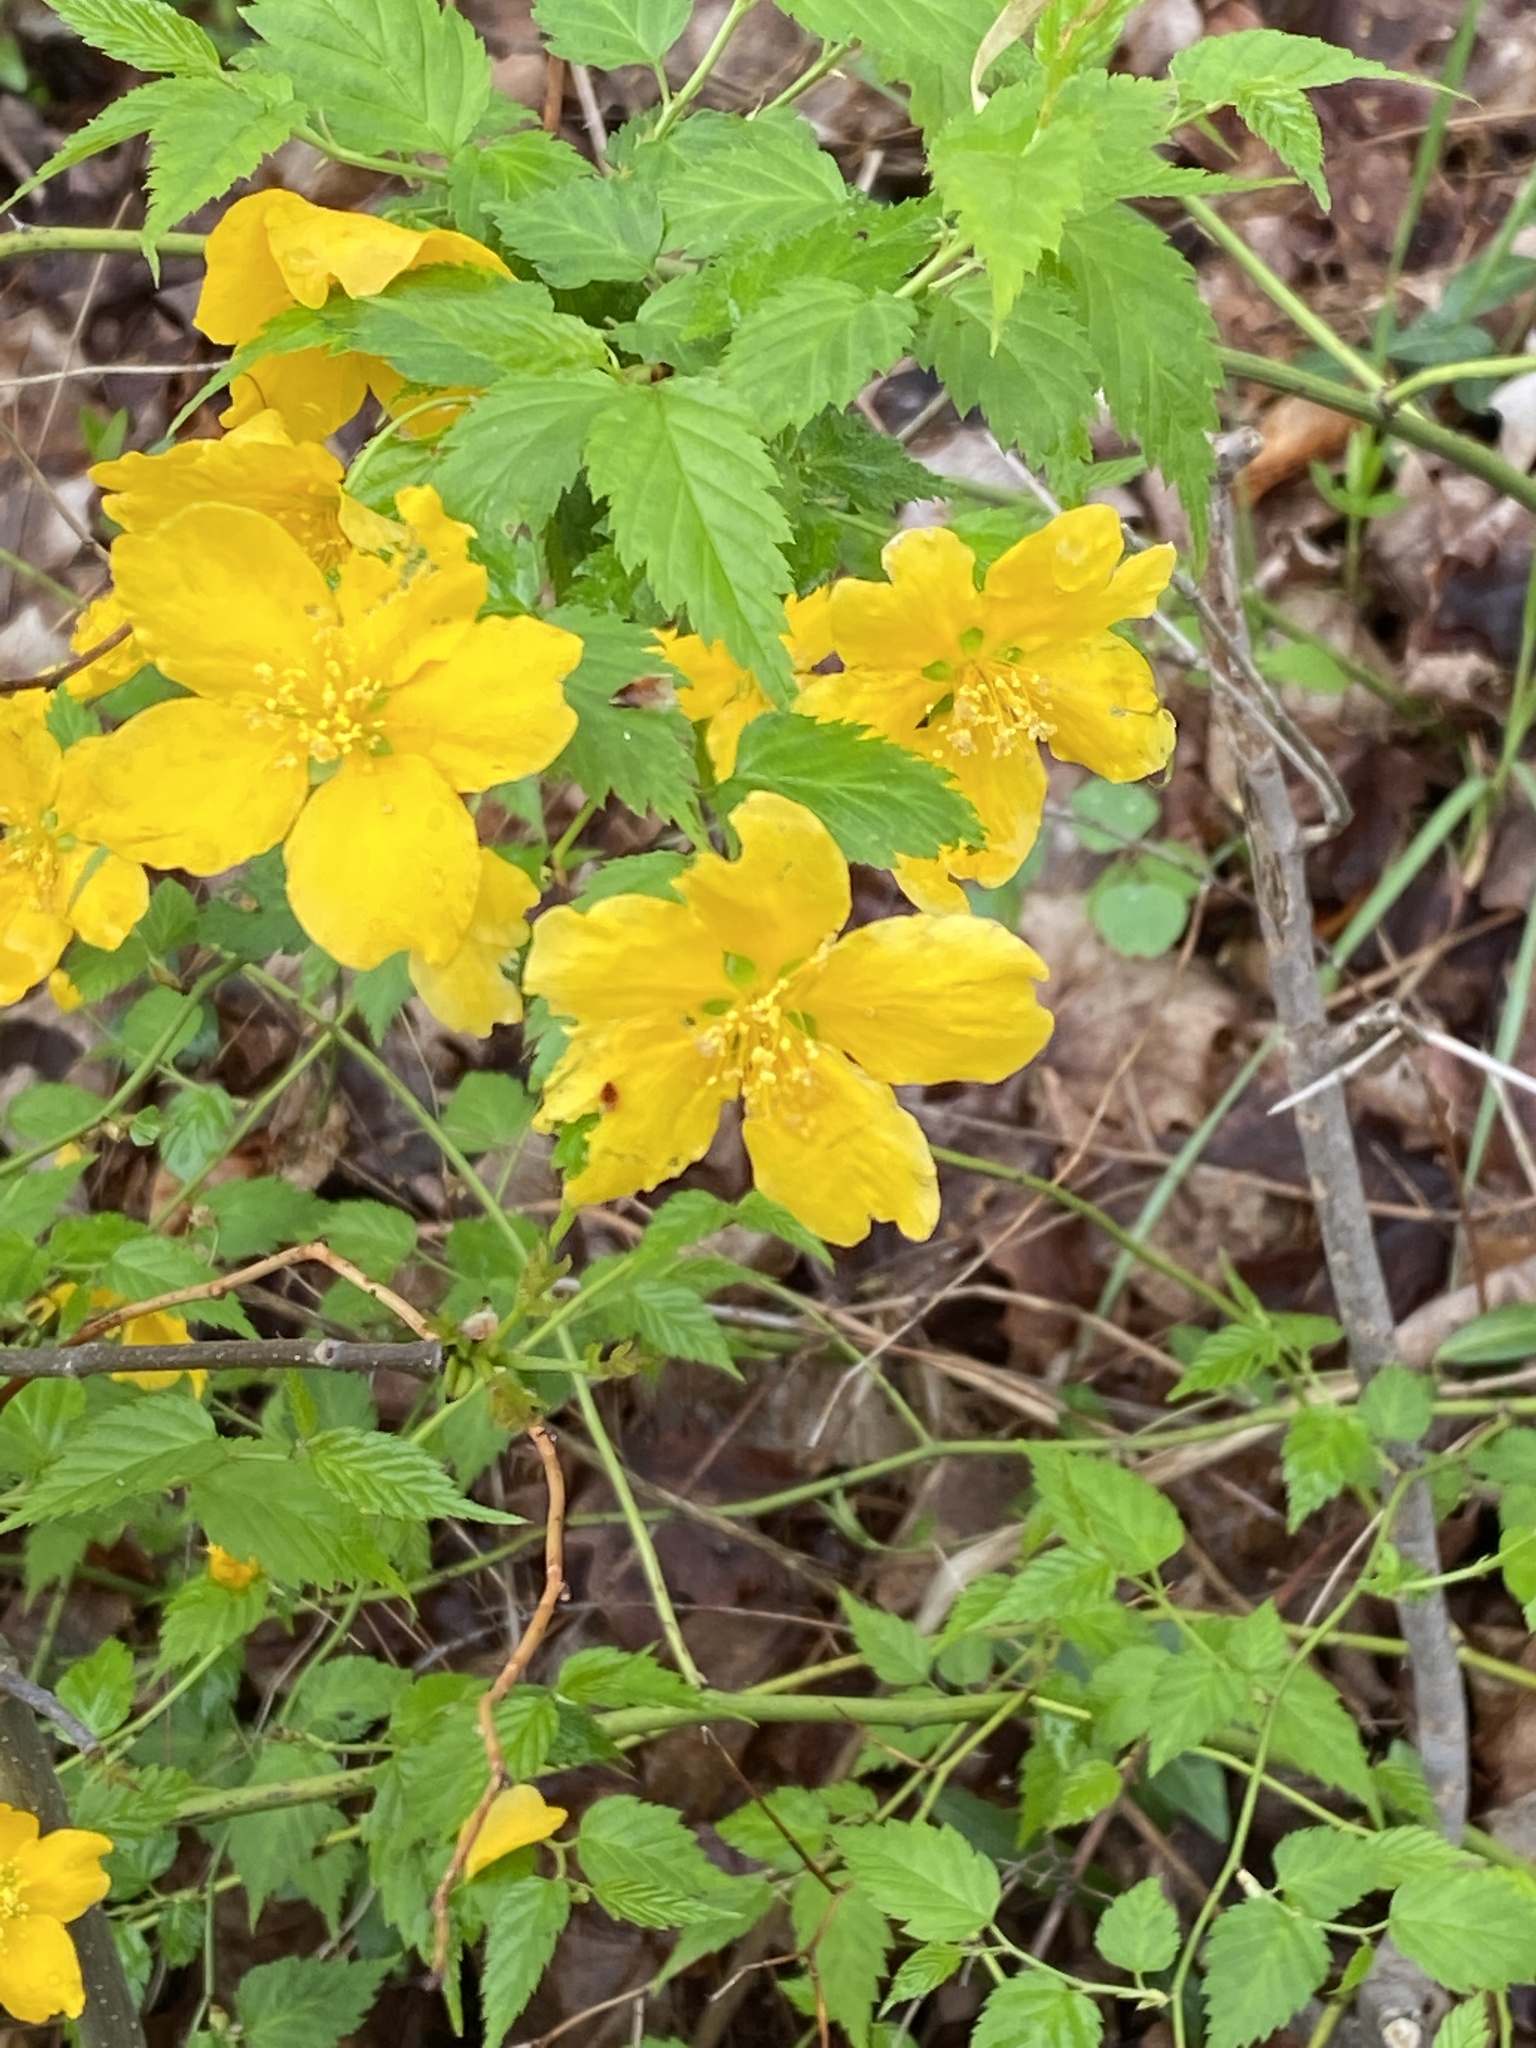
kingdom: Plantae
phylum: Tracheophyta
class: Magnoliopsida
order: Rosales
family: Rosaceae
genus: Kerria
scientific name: Kerria japonica
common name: Japanese kerria
